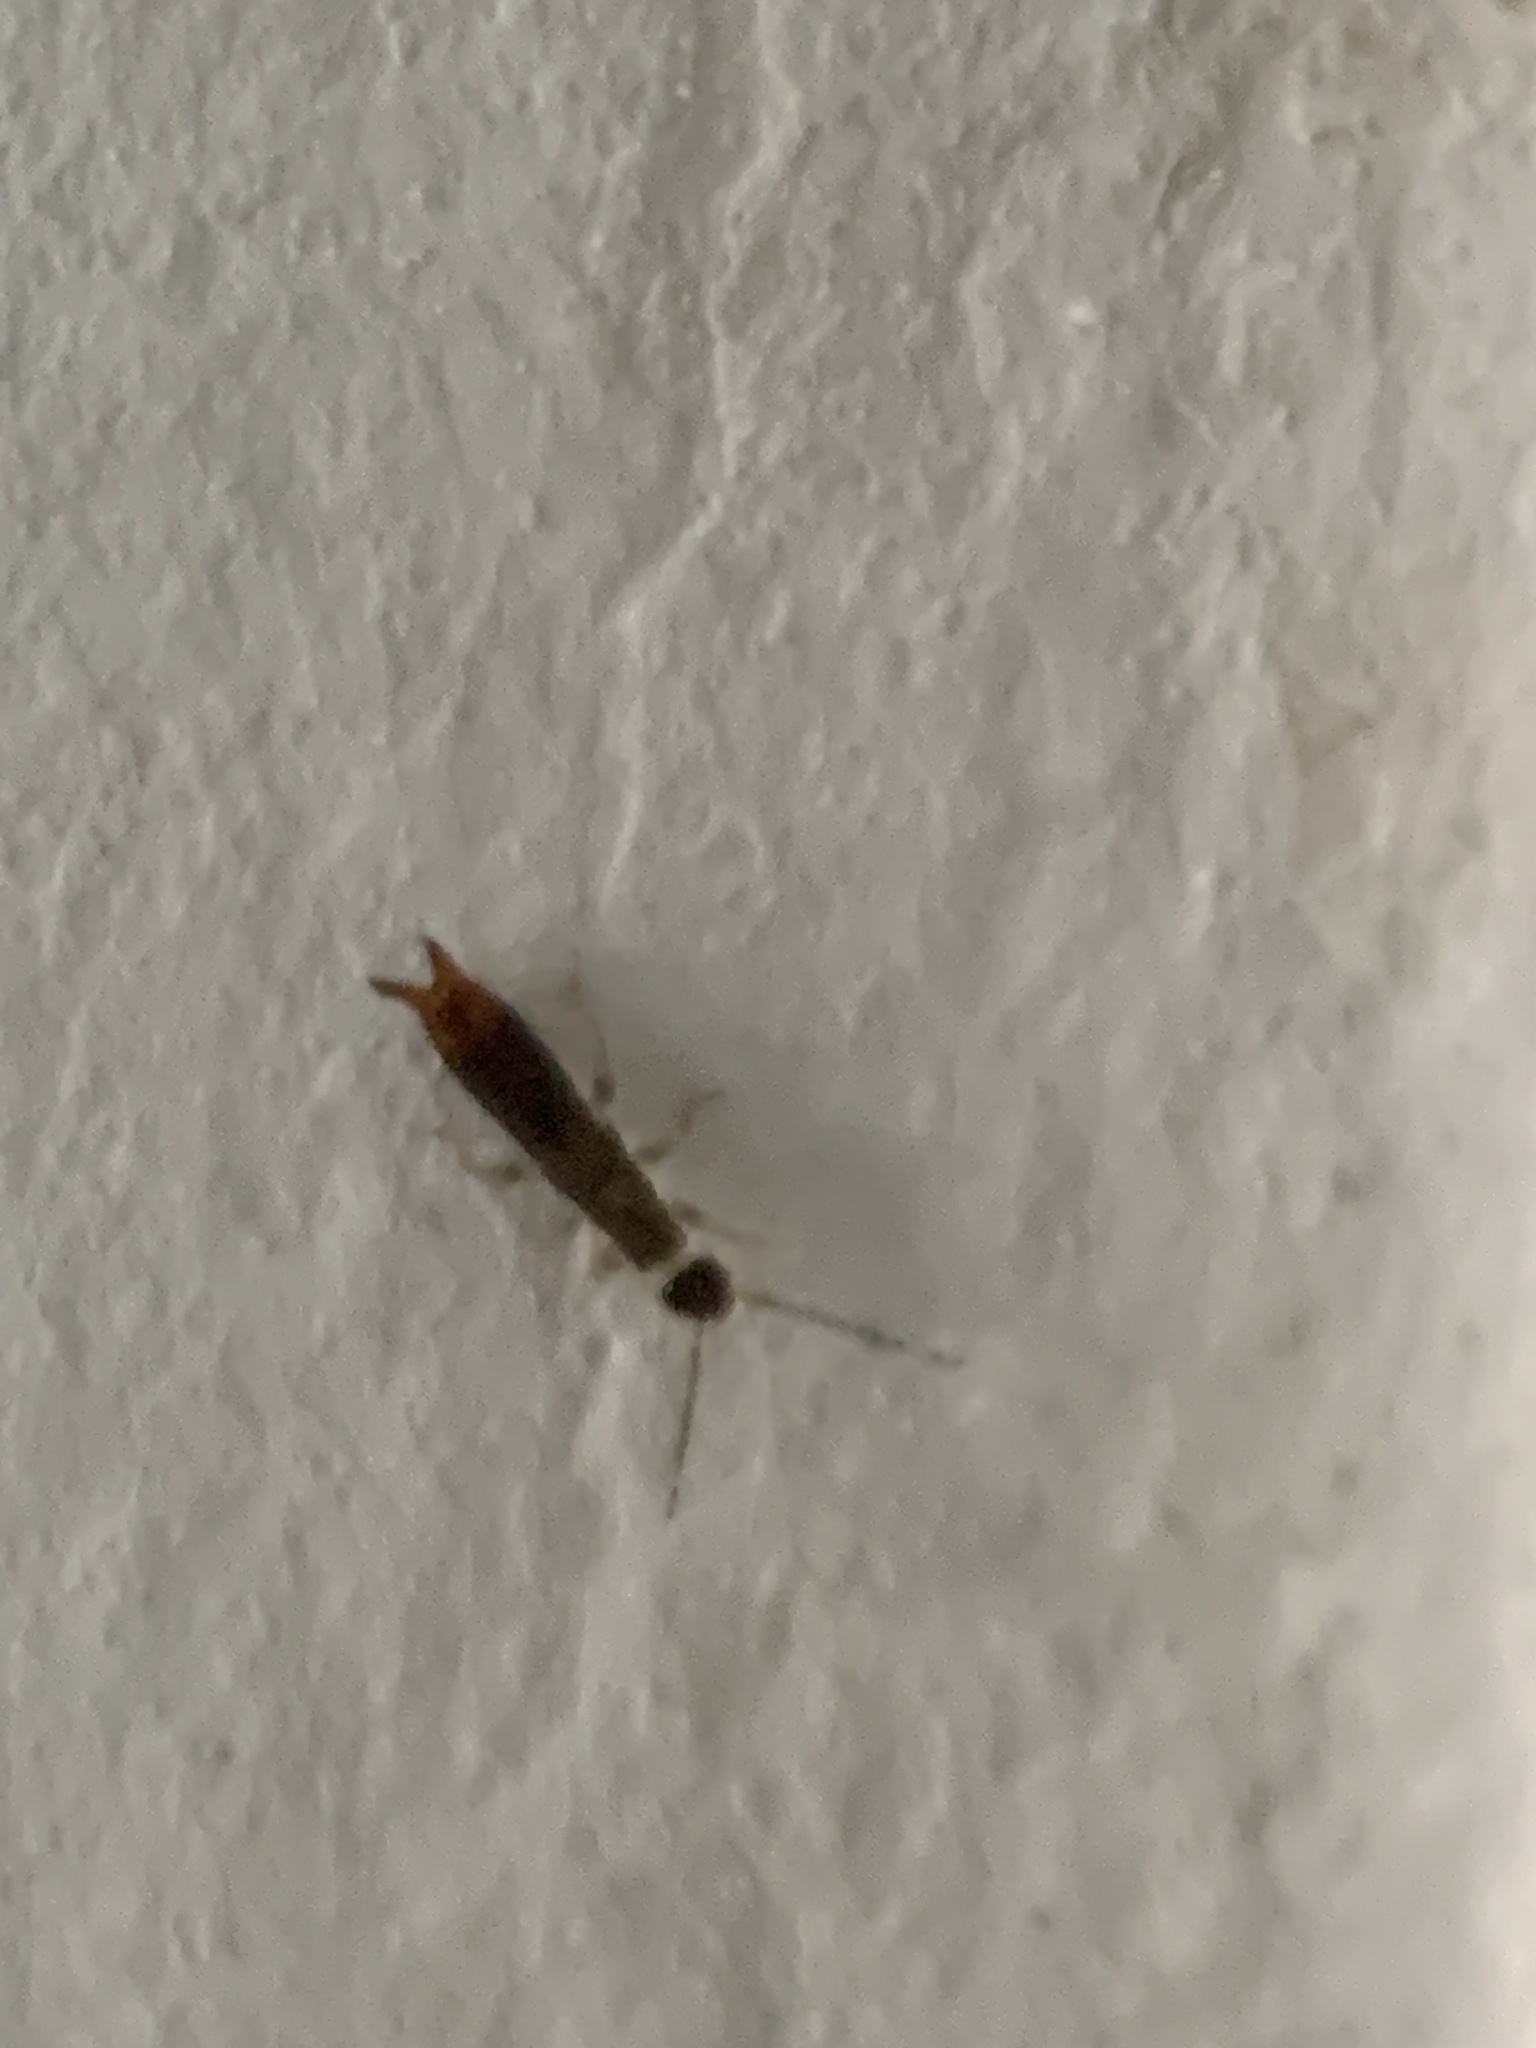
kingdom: Animalia
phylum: Arthropoda
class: Insecta
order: Dermaptera
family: Anisolabididae
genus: Euborellia
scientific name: Euborellia annulipes
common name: Ringlegged earwig
